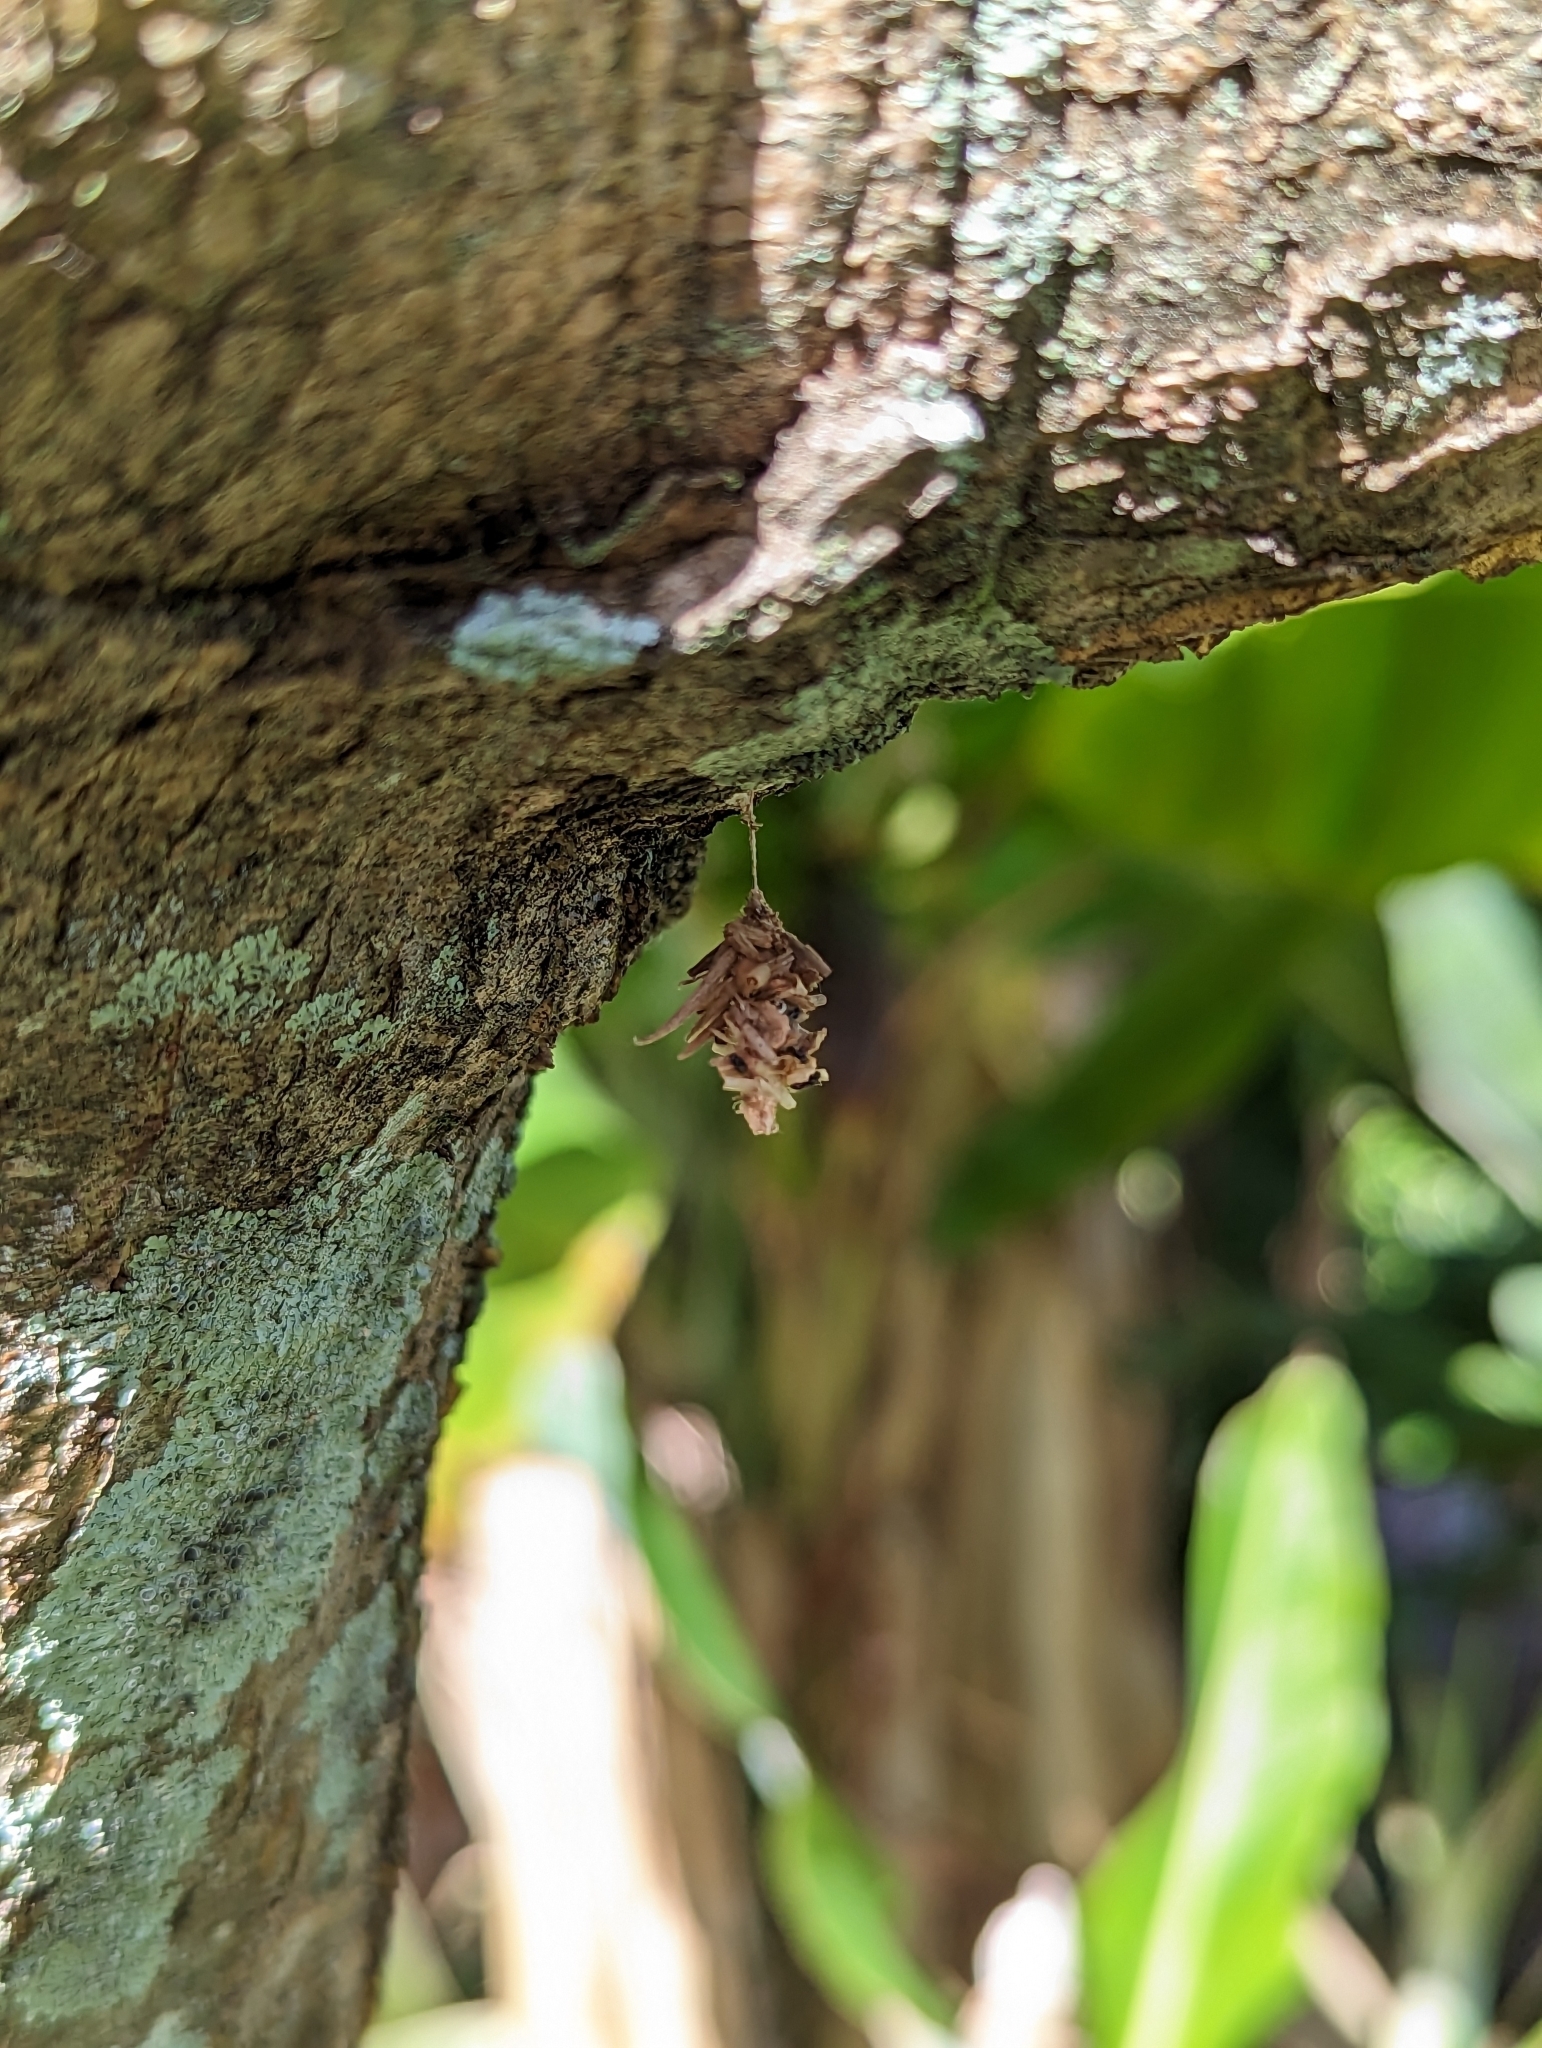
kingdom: Animalia
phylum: Arthropoda
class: Insecta
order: Lepidoptera
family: Psychidae
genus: Brachycyttarus
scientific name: Brachycyttarus griseus
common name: Grass bagworm
